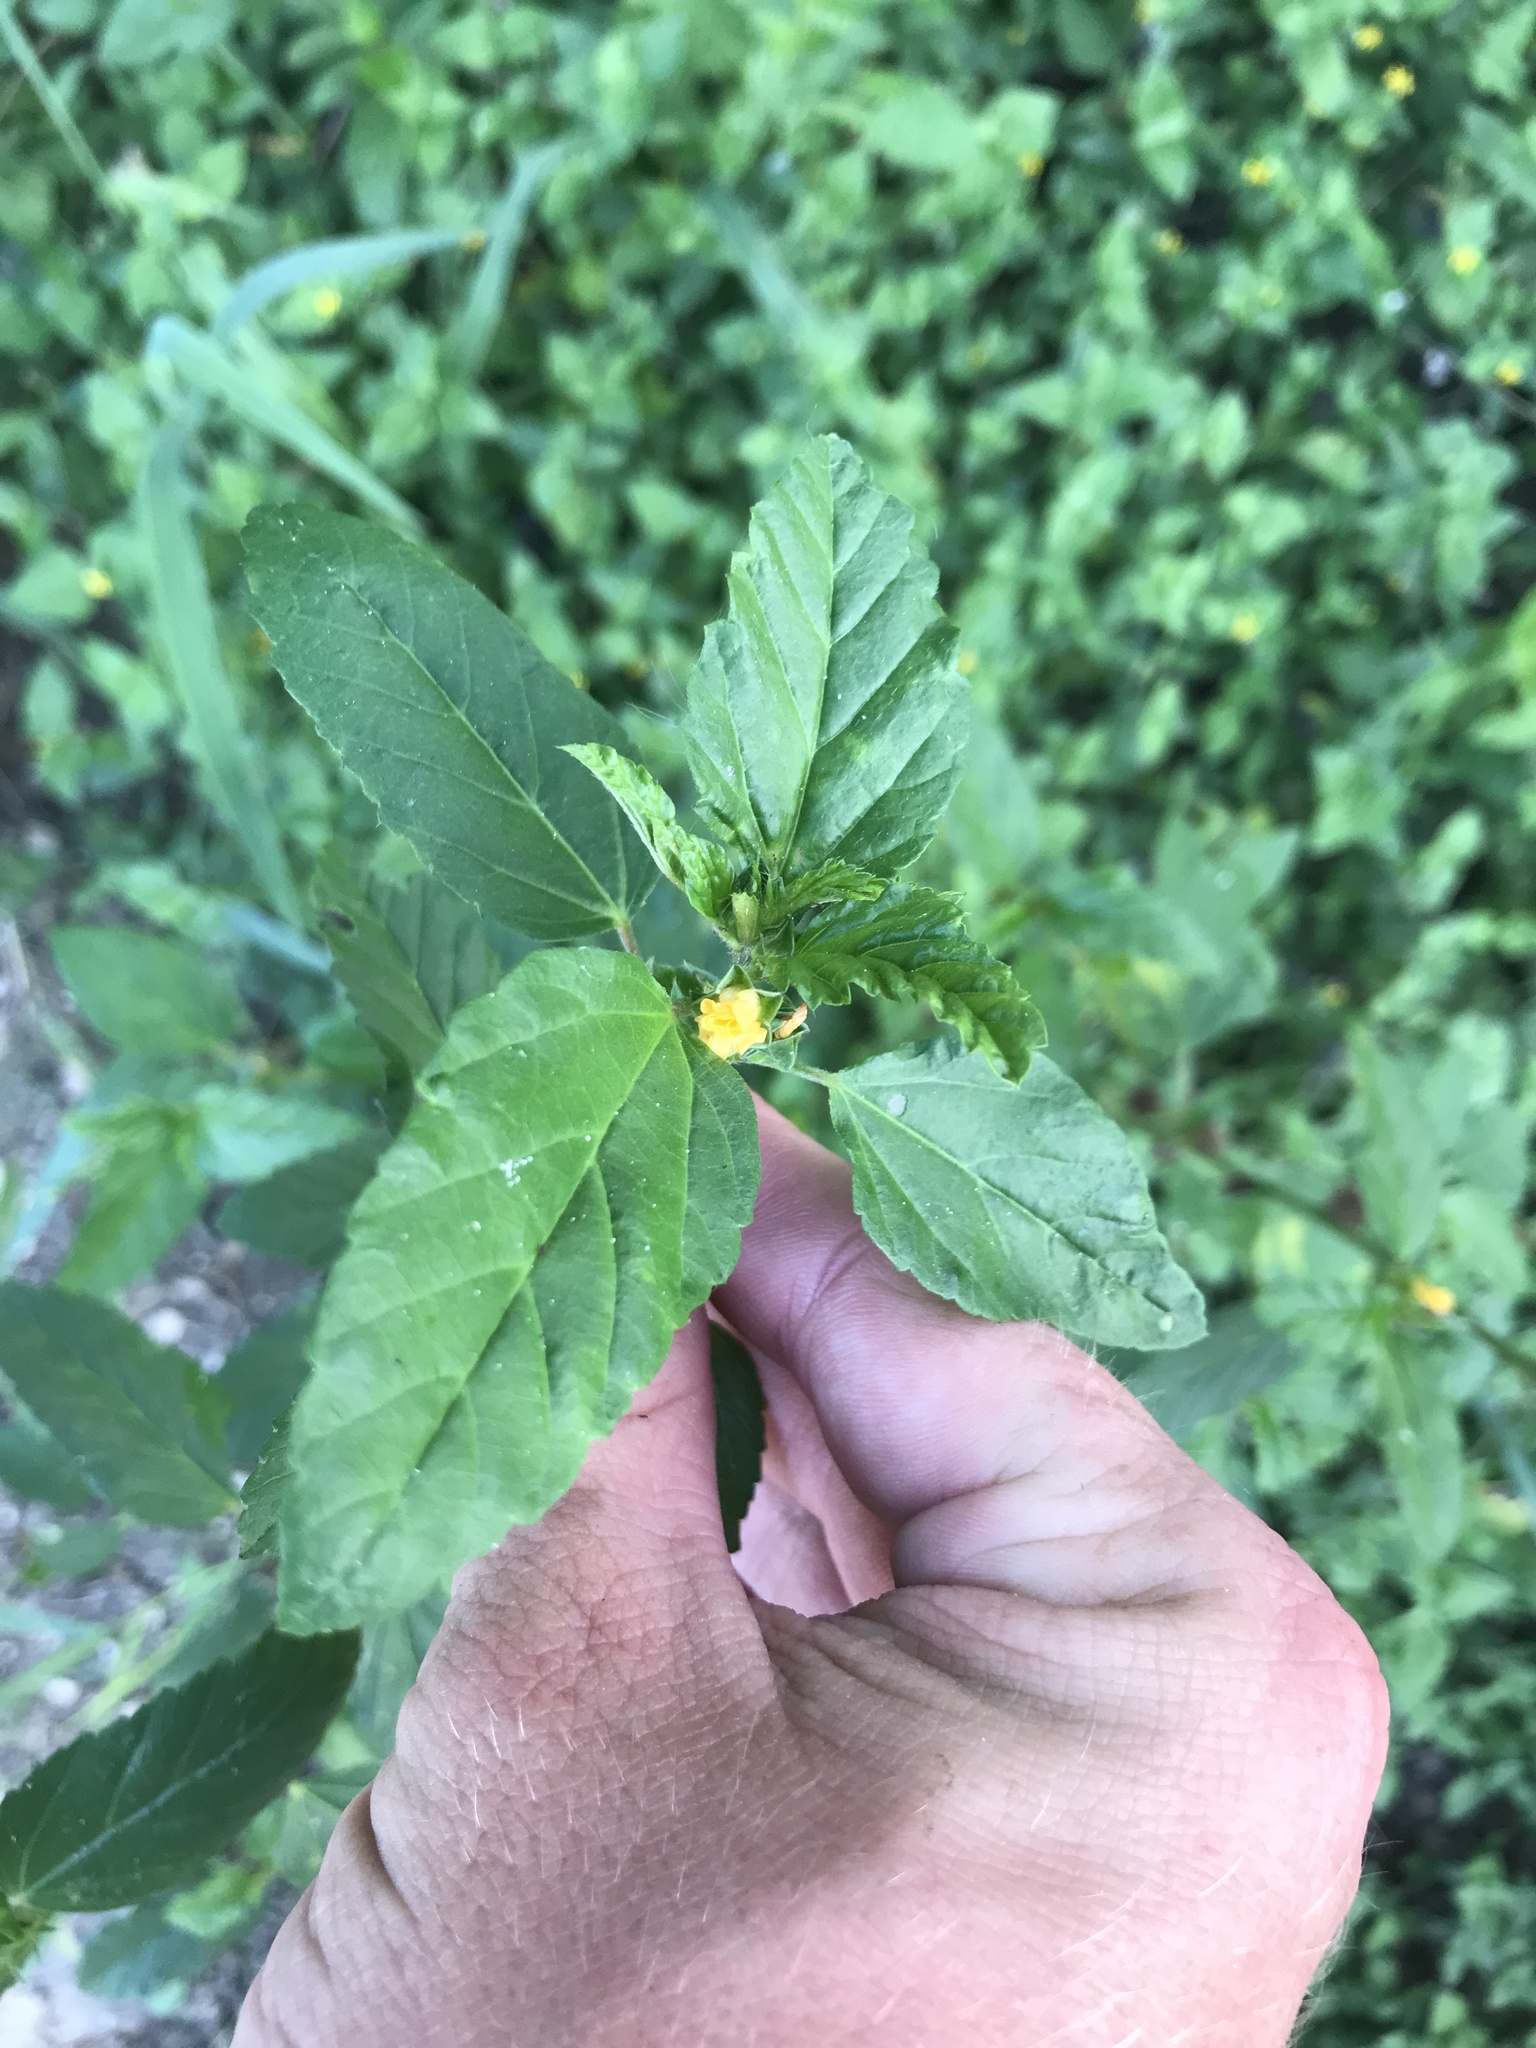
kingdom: Plantae
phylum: Tracheophyta
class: Magnoliopsida
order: Malvales
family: Malvaceae
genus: Malvastrum
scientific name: Malvastrum coromandelianum
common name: Threelobe false mallow
